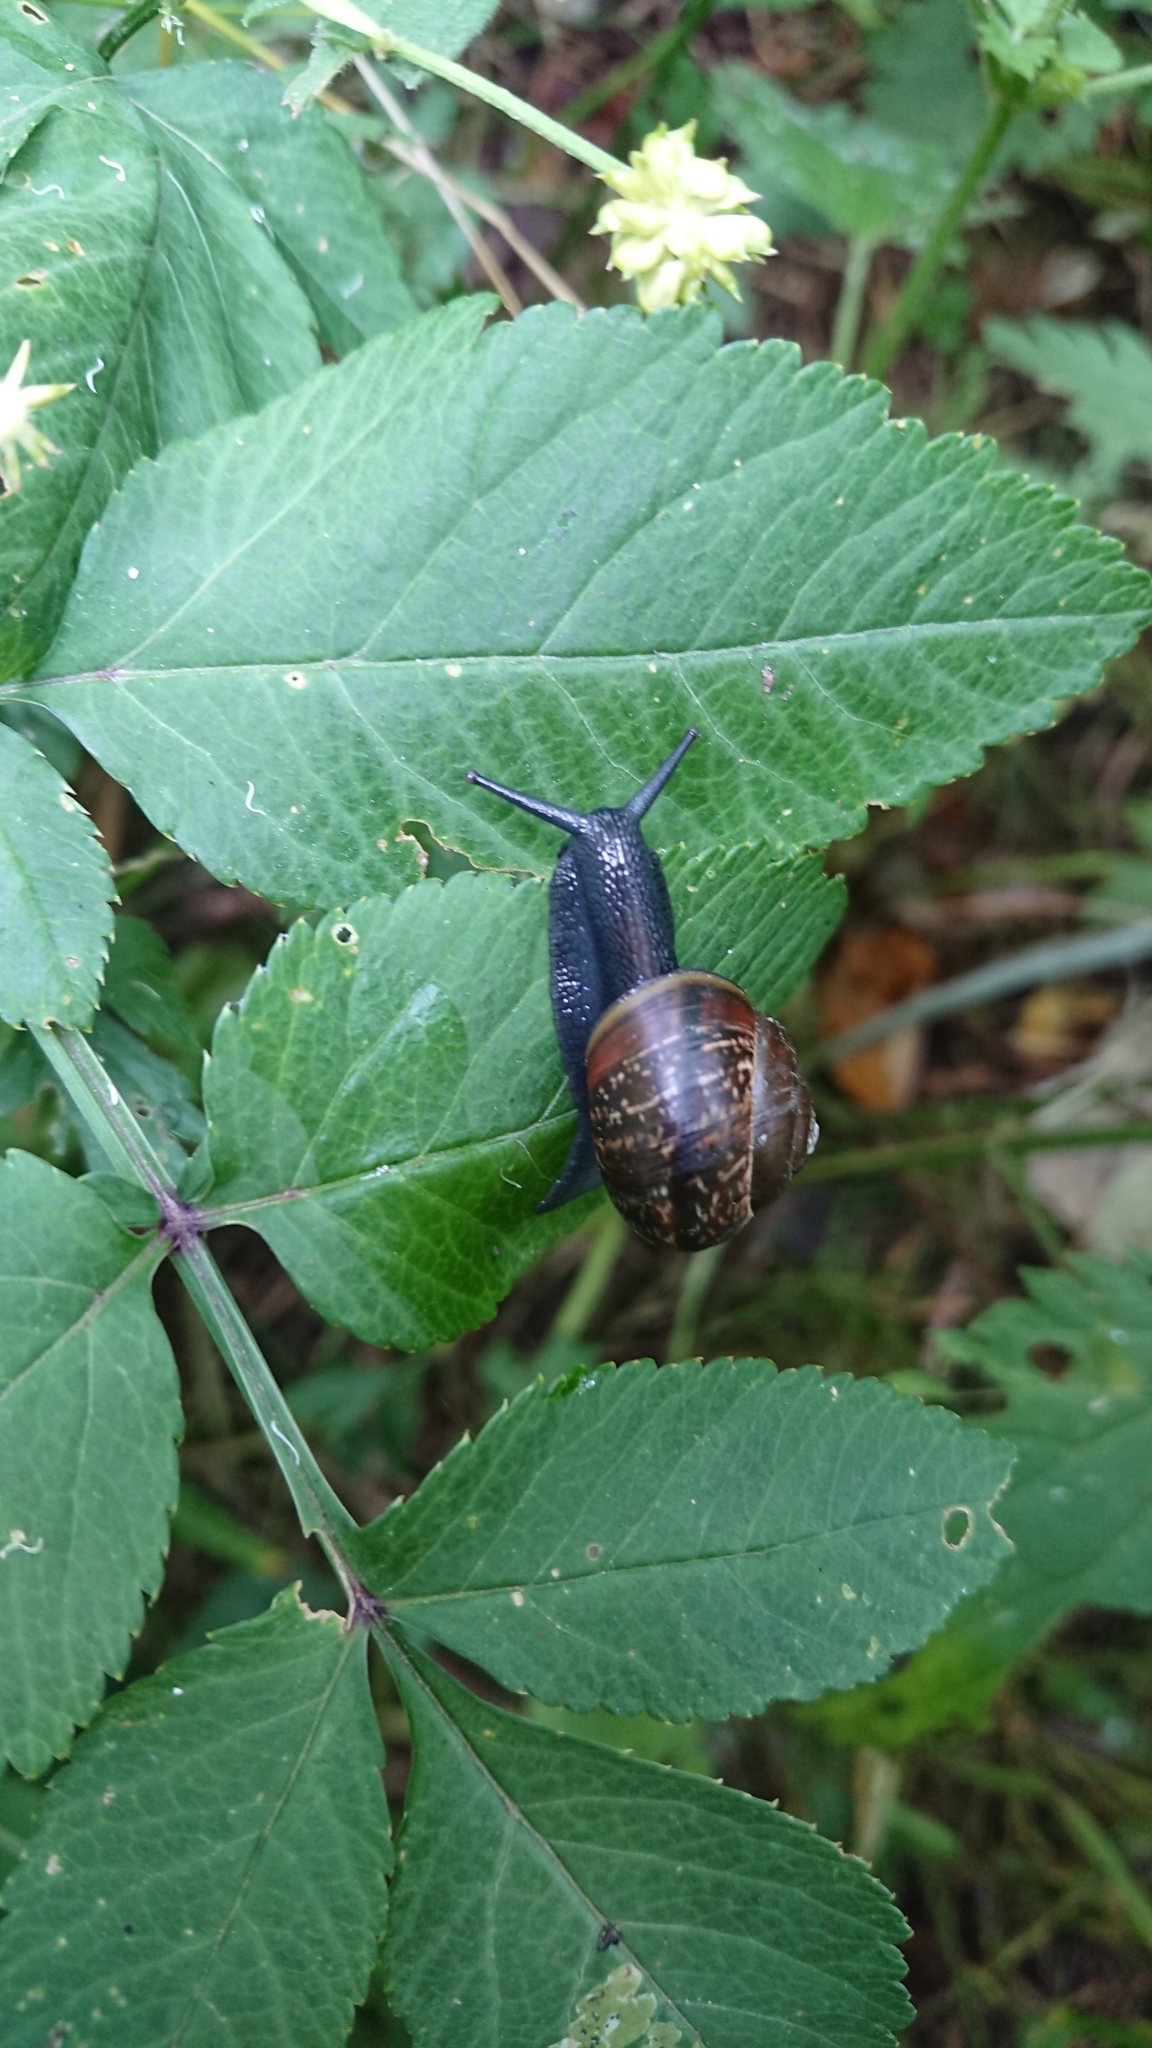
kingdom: Animalia
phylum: Mollusca
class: Gastropoda
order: Stylommatophora
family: Helicidae
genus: Arianta
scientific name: Arianta arbustorum
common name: Copse snail
